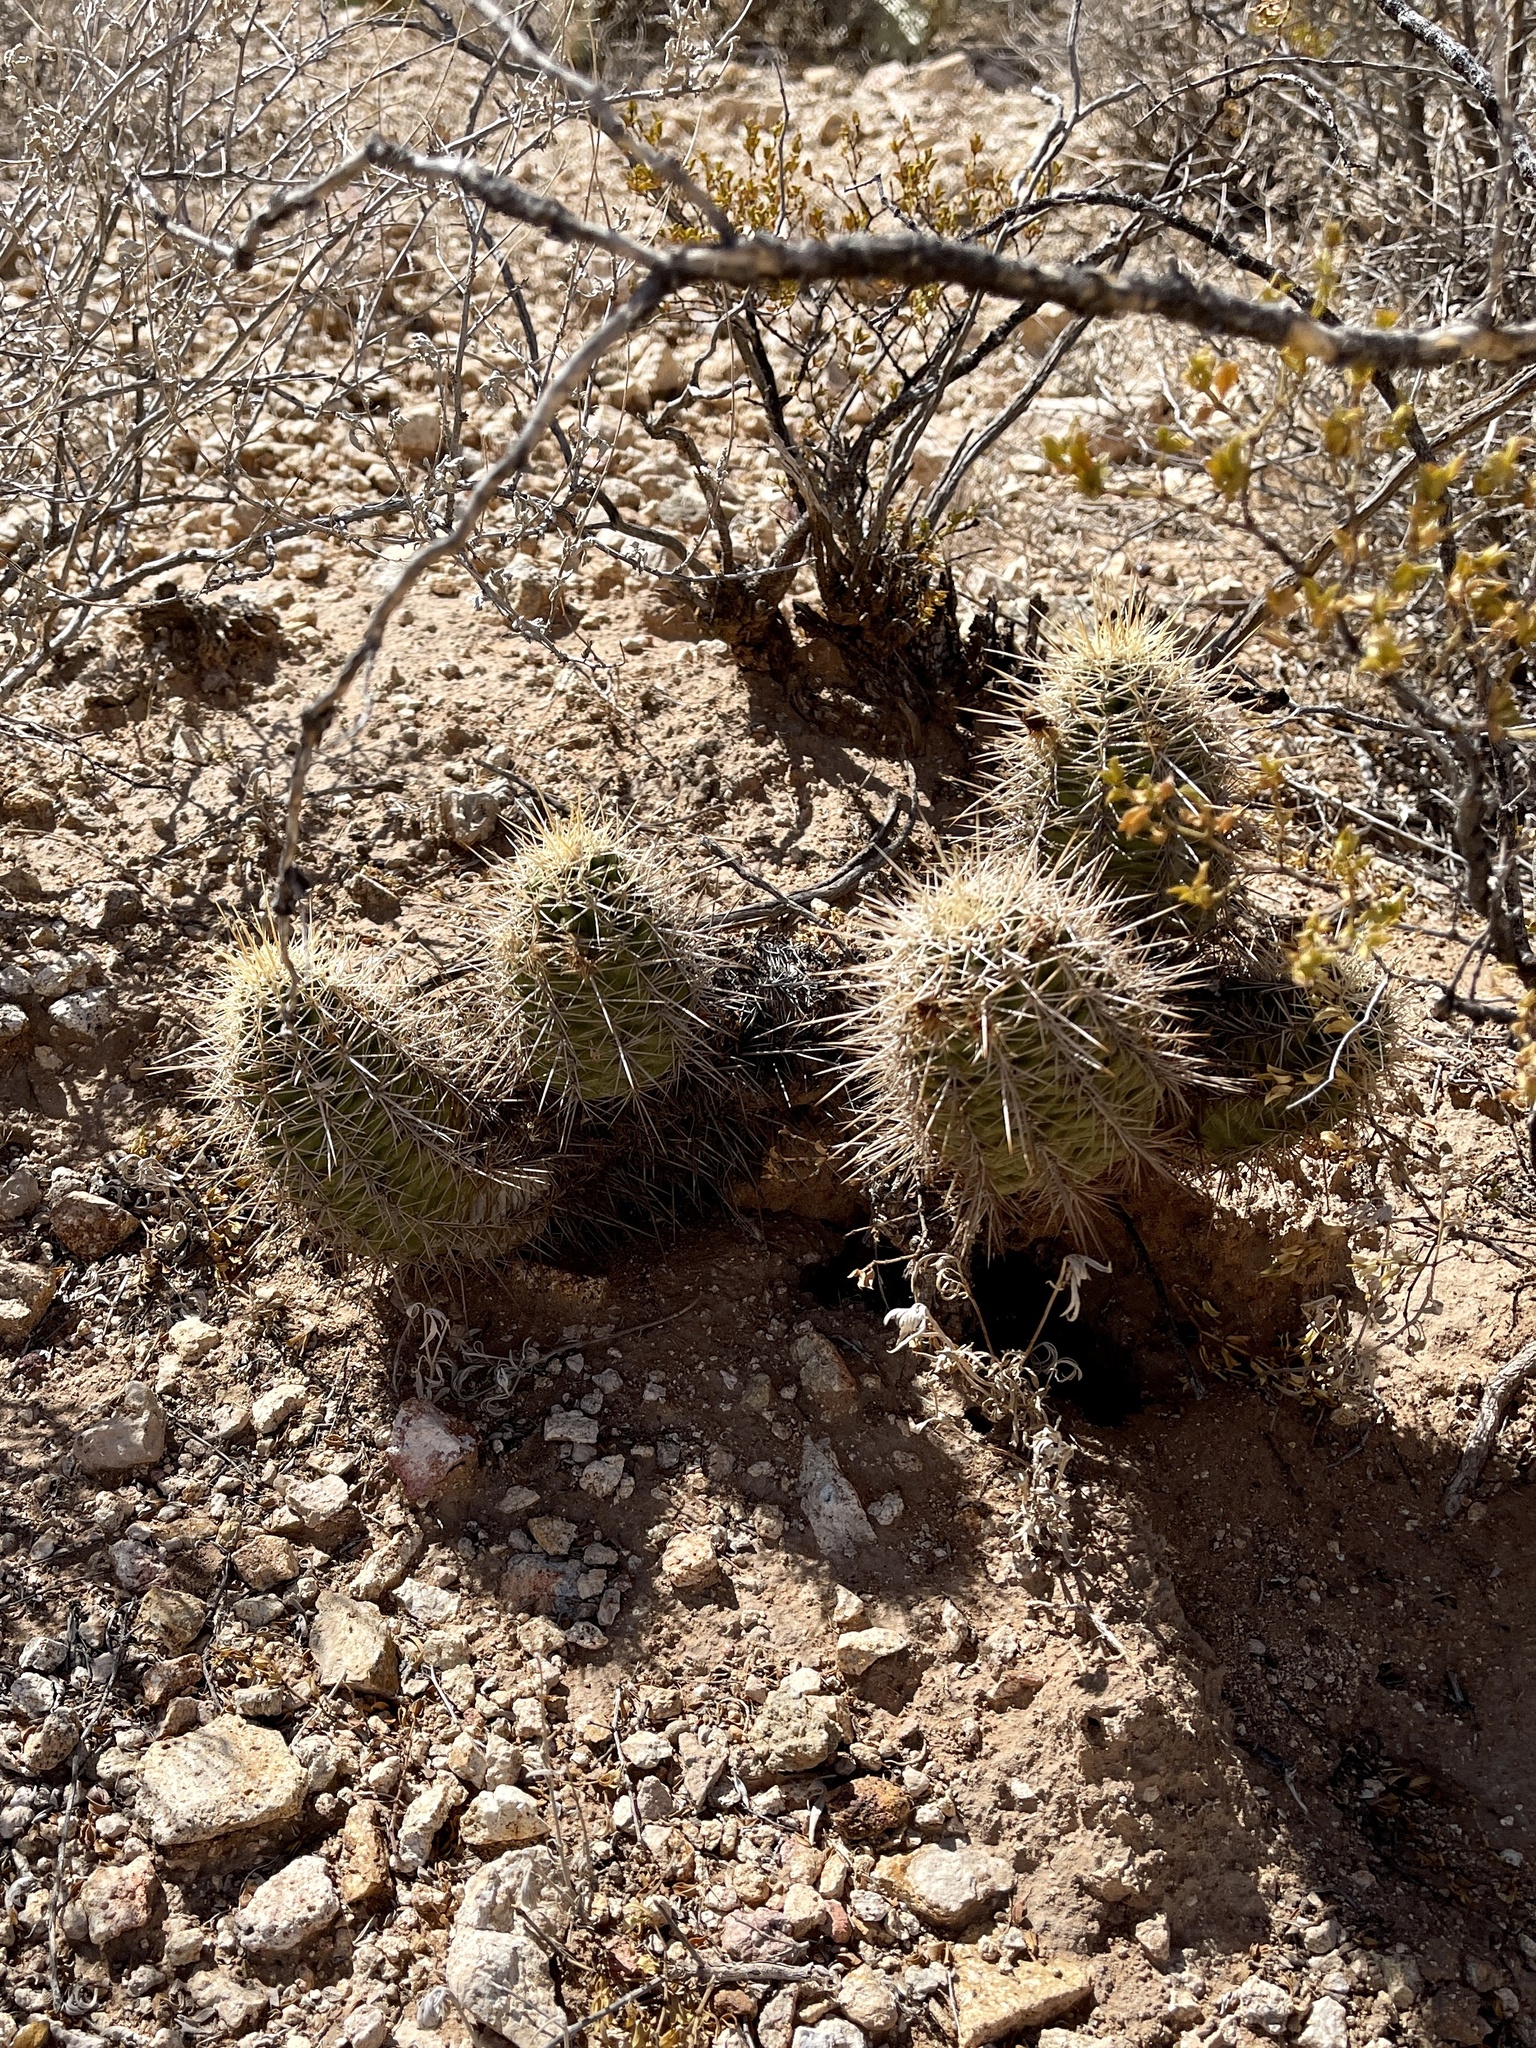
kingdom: Plantae
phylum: Tracheophyta
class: Magnoliopsida
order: Caryophyllales
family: Cactaceae
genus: Echinocereus
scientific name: Echinocereus coccineus
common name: Scarlet hedgehog cactus
